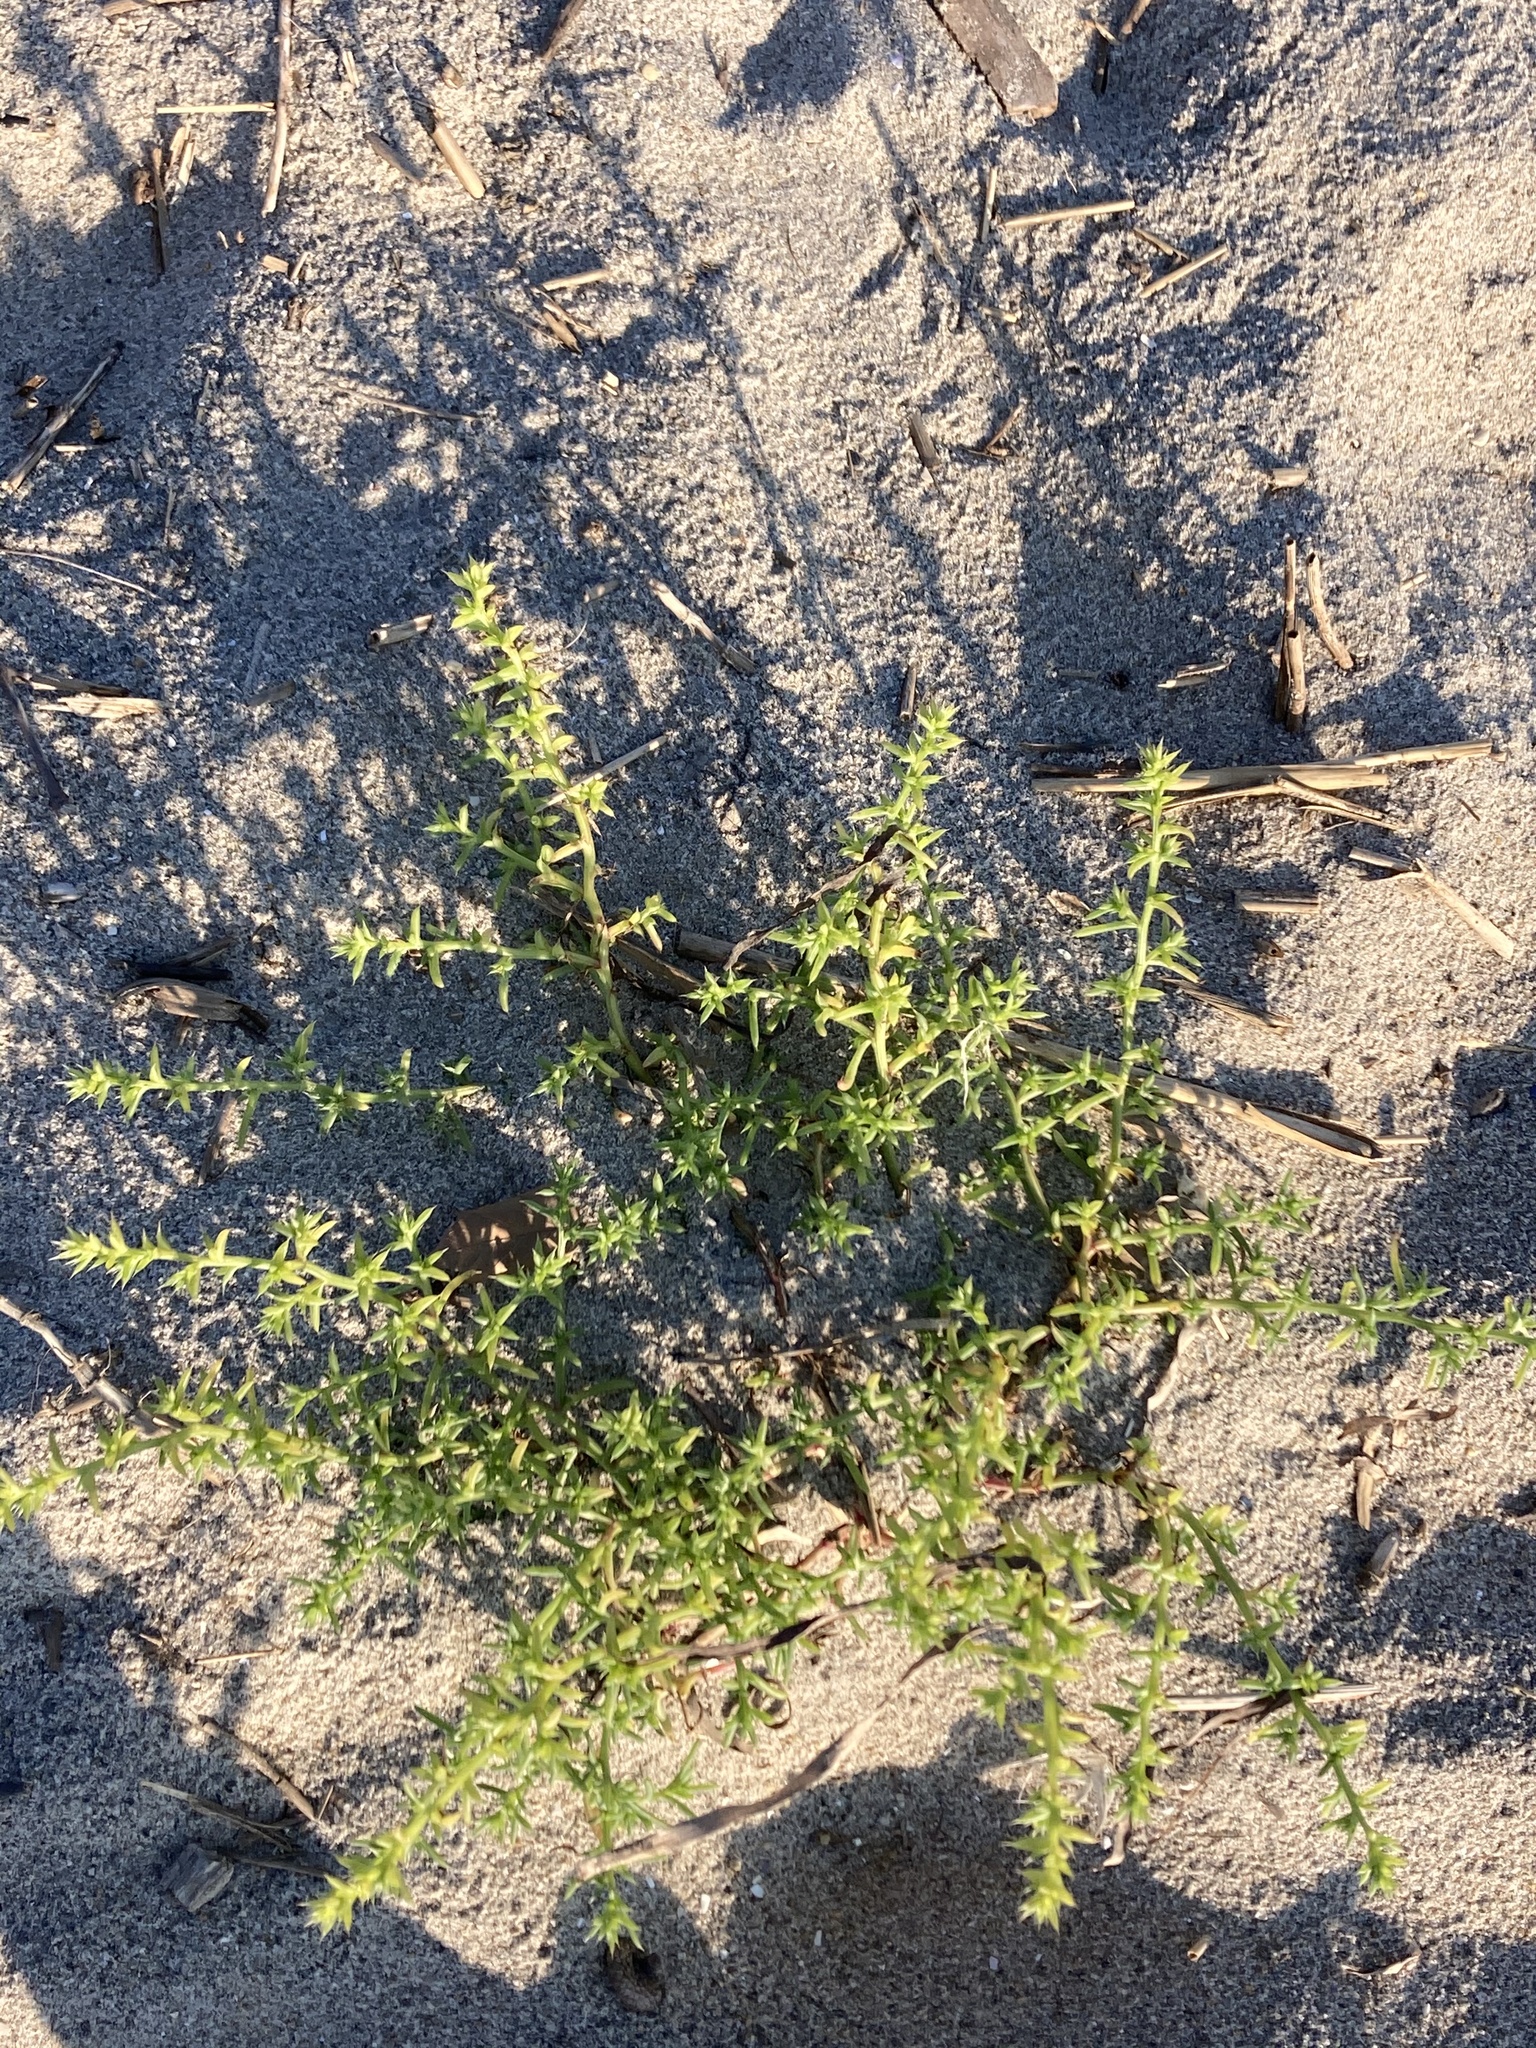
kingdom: Plantae
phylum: Tracheophyta
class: Magnoliopsida
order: Caryophyllales
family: Amaranthaceae
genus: Salsola
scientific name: Salsola kali
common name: Saltwort
